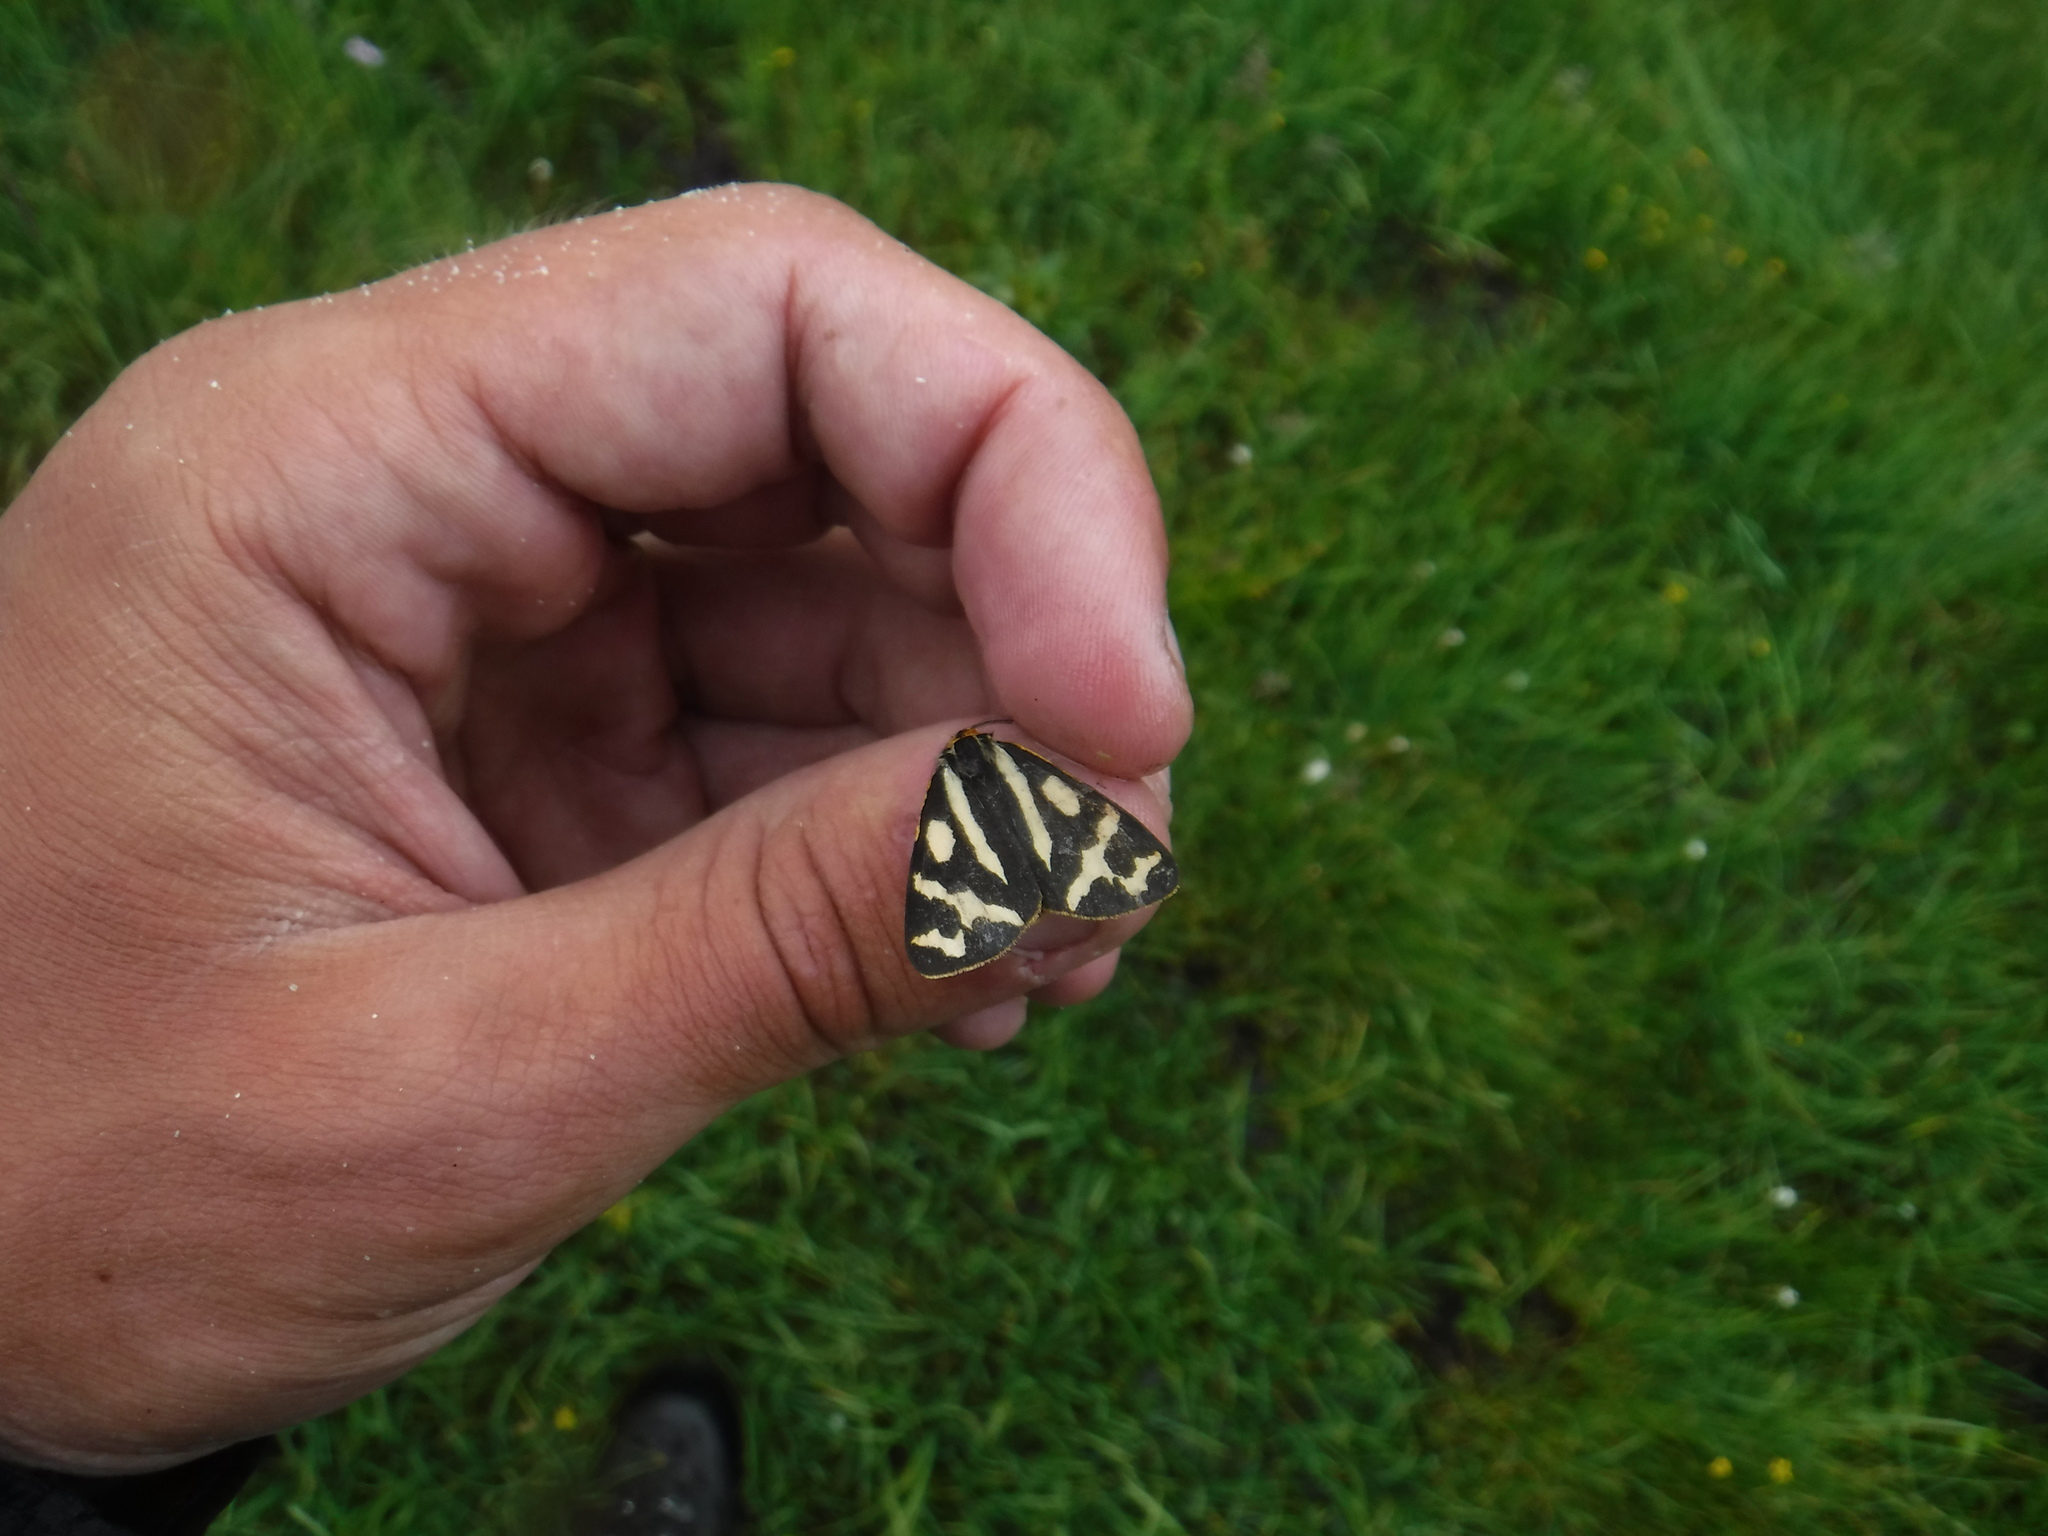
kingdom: Animalia
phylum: Arthropoda
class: Insecta
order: Lepidoptera
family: Erebidae
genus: Parasemia
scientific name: Parasemia plantaginis
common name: Wood tiger
